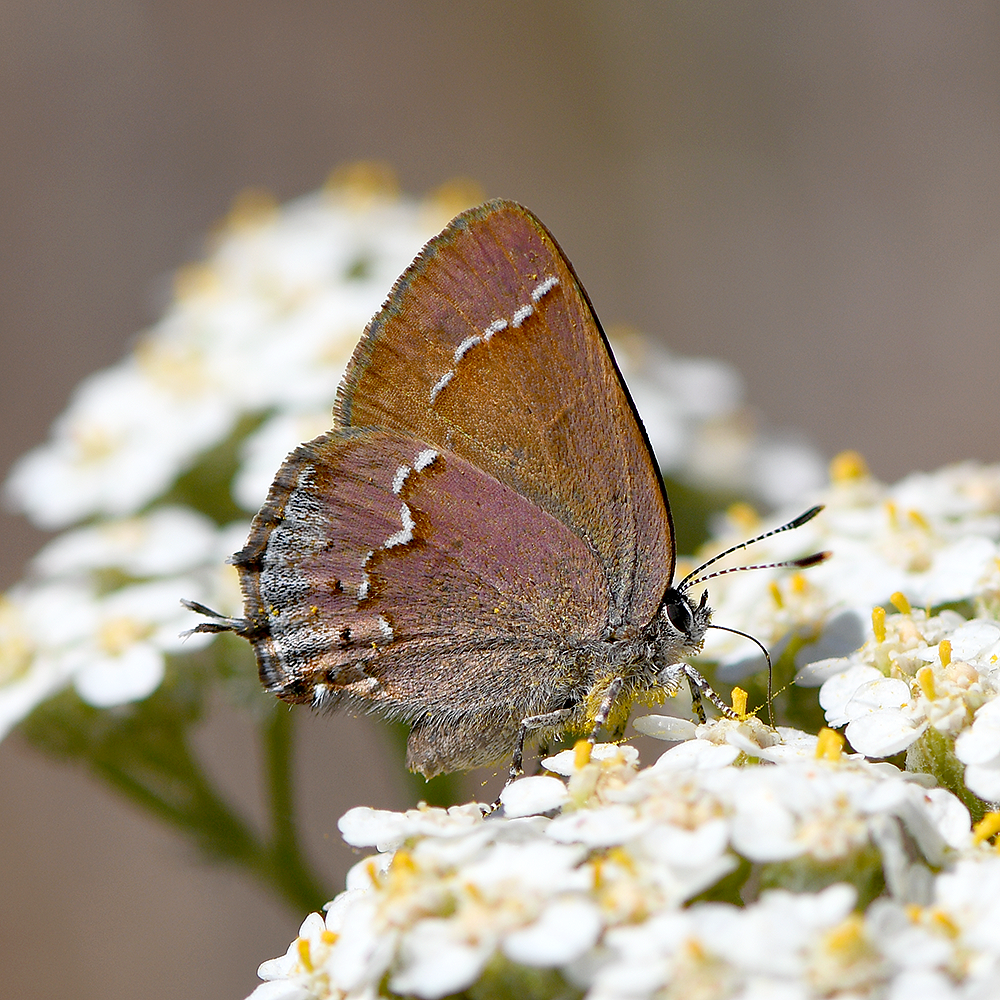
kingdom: Animalia
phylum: Arthropoda
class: Insecta
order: Lepidoptera
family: Lycaenidae
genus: Mitoura
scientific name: Mitoura nelsoni
